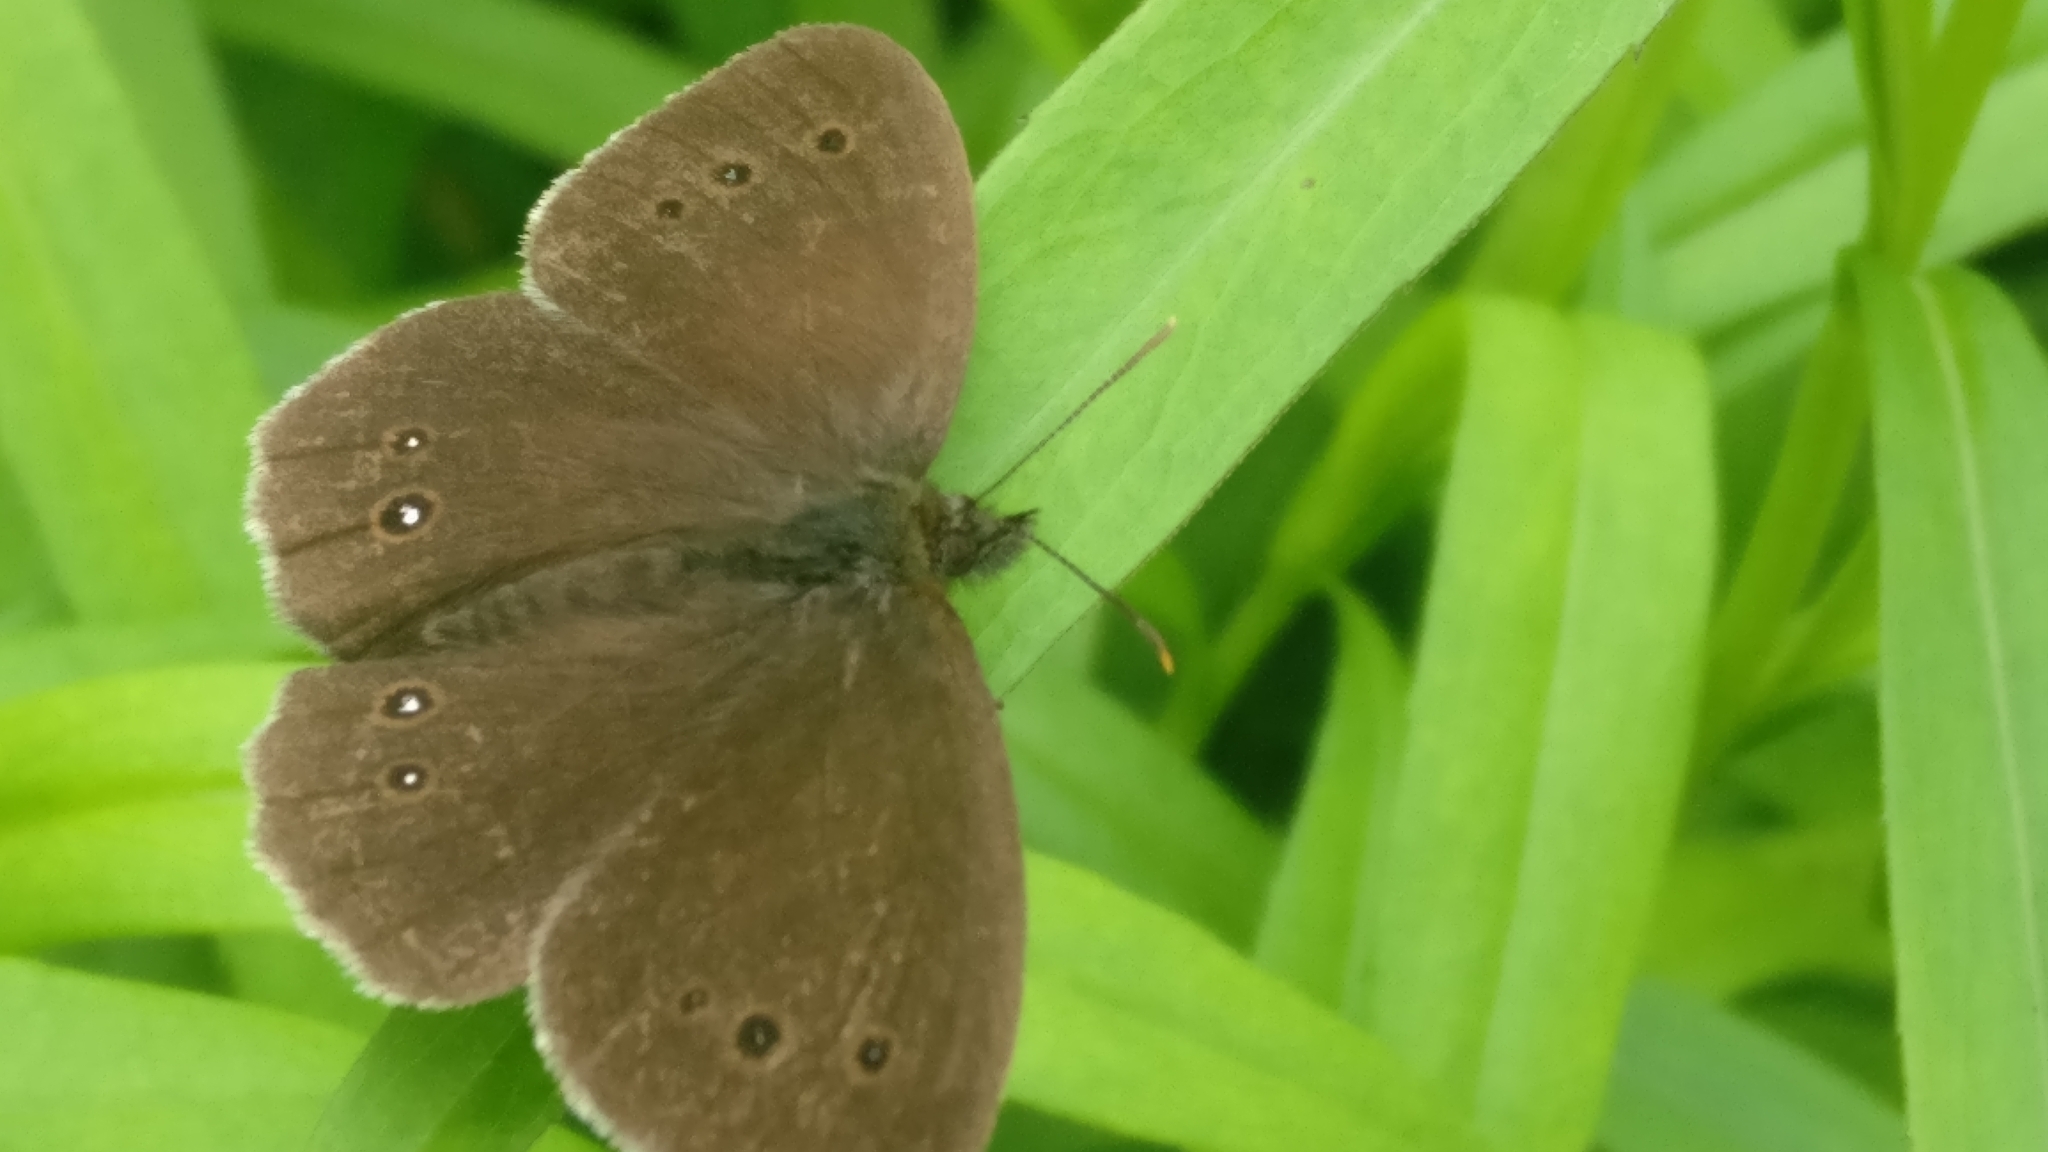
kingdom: Animalia
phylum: Arthropoda
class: Insecta
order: Lepidoptera
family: Nymphalidae
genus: Aphantopus
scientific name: Aphantopus hyperantus
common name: Ringlet
